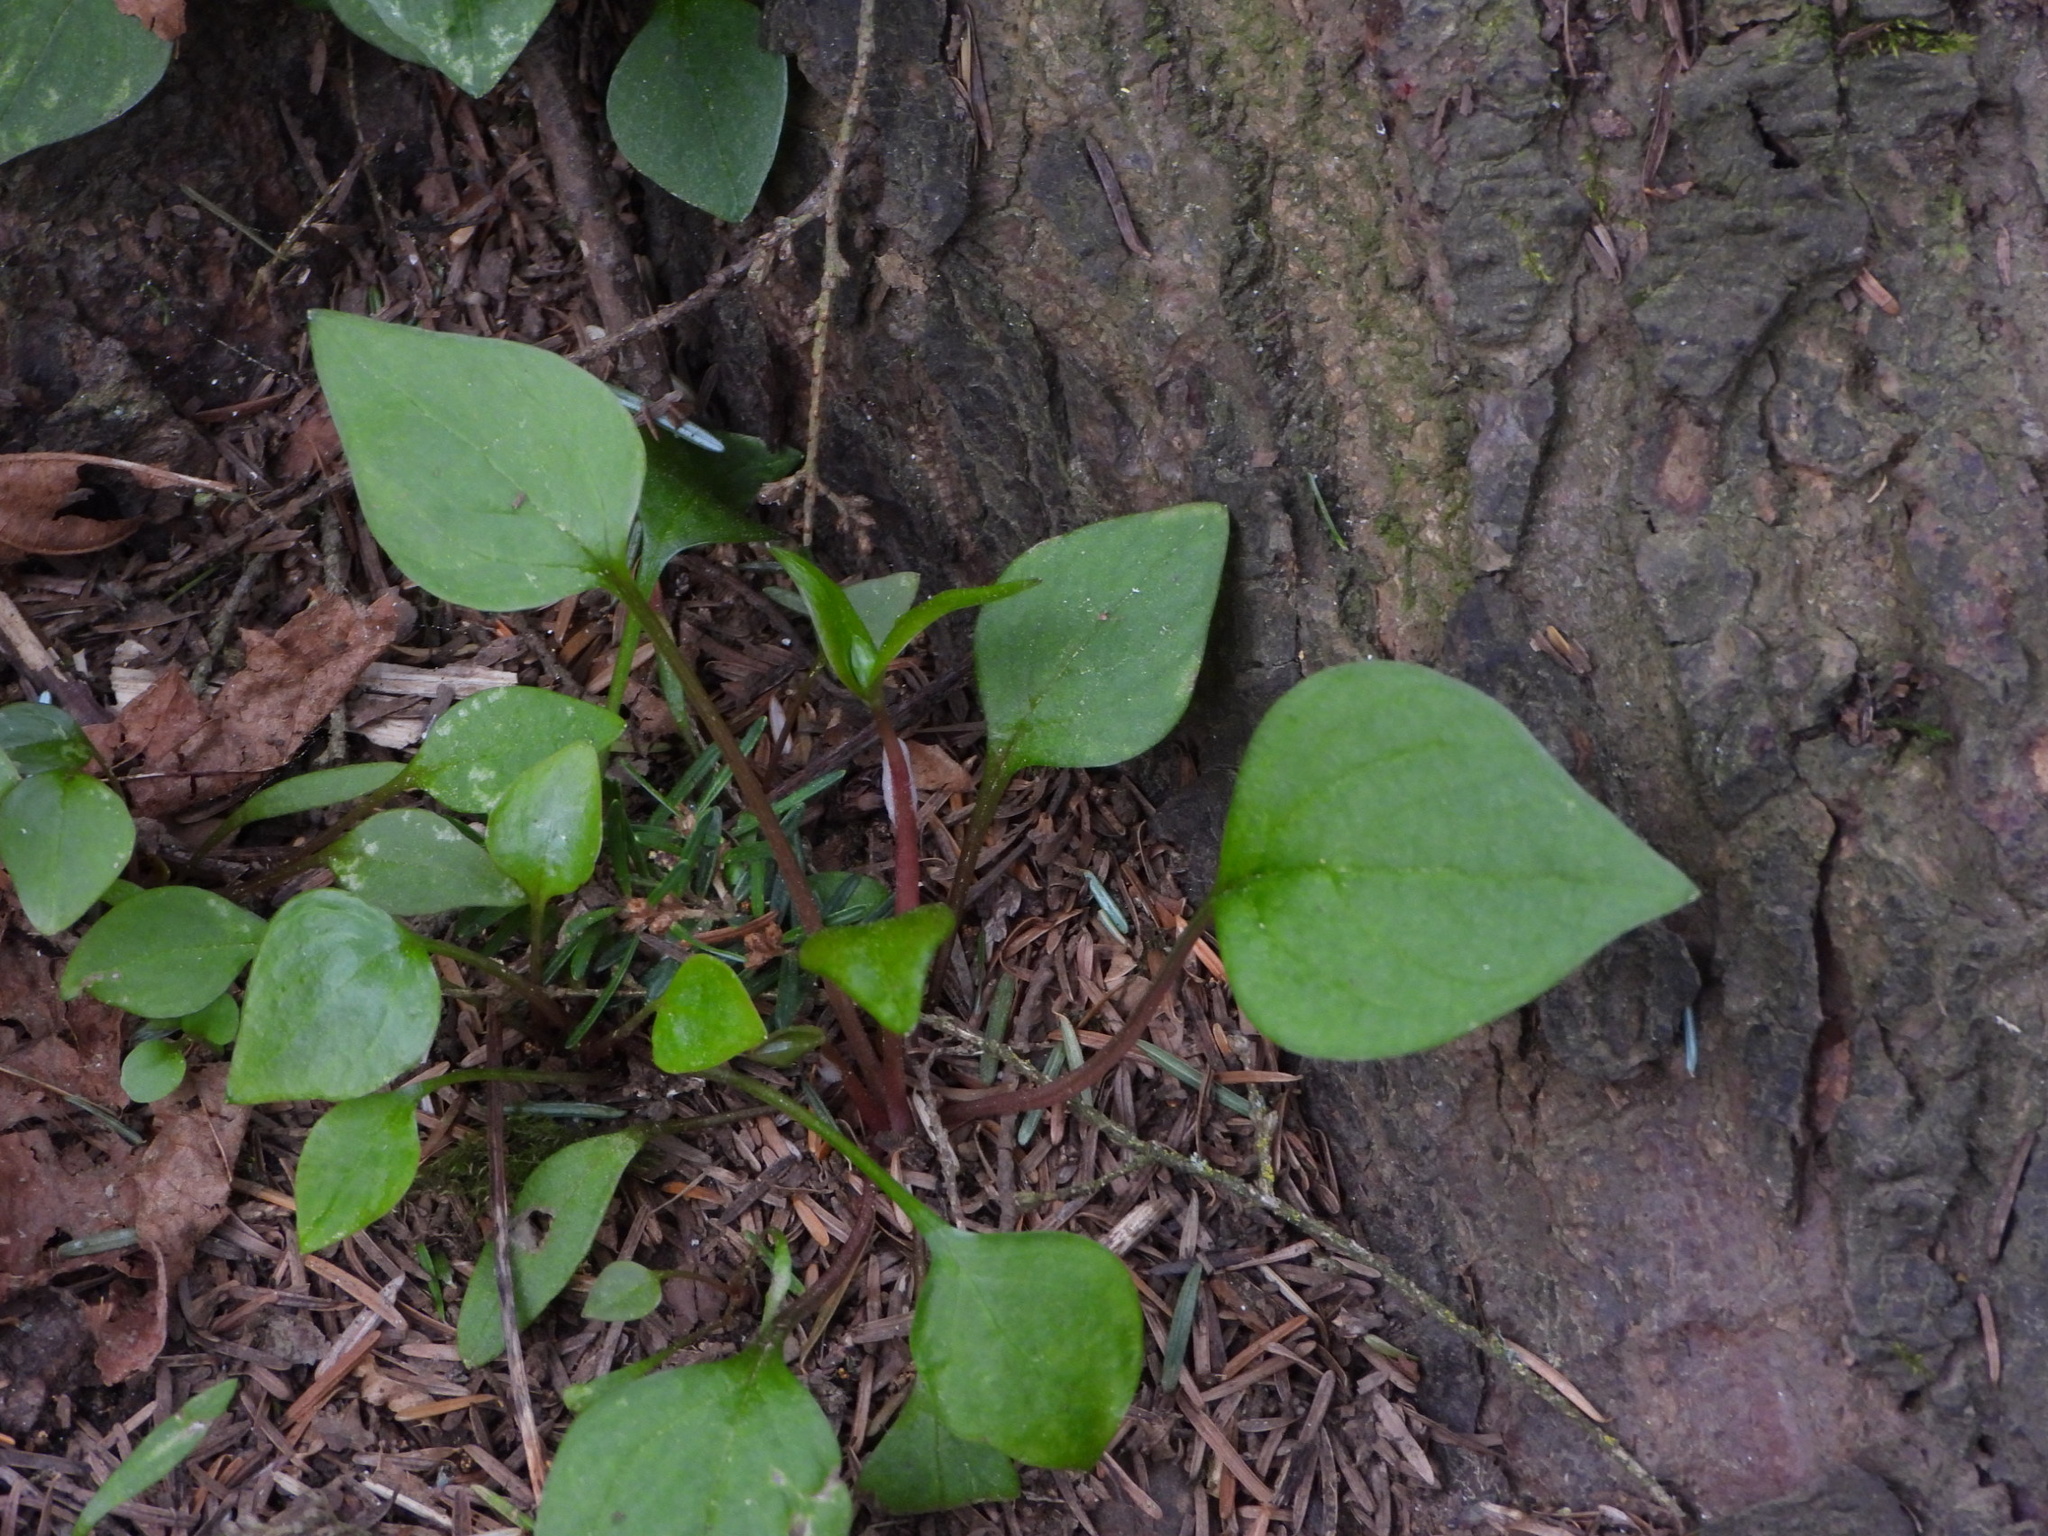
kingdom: Plantae
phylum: Tracheophyta
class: Magnoliopsida
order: Caryophyllales
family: Montiaceae
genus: Claytonia
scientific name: Claytonia sibirica
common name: Pink purslane
